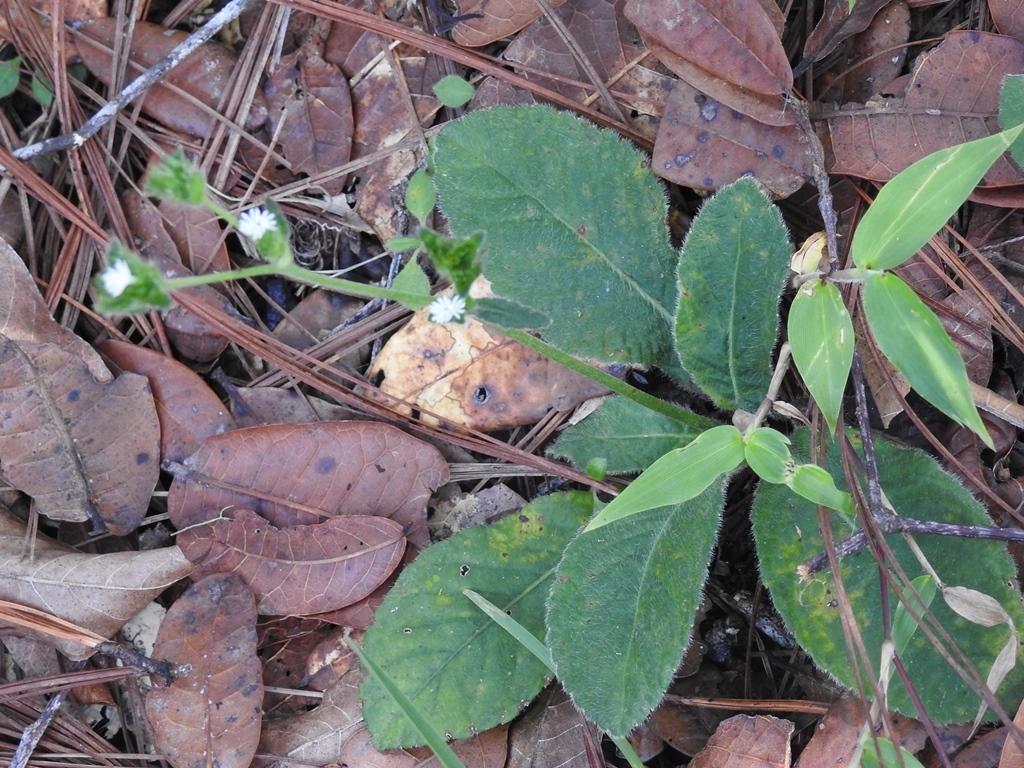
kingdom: Plantae
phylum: Tracheophyta
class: Magnoliopsida
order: Asterales
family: Asteraceae
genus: Pseudelephantopus
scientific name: Pseudelephantopus spicatus
